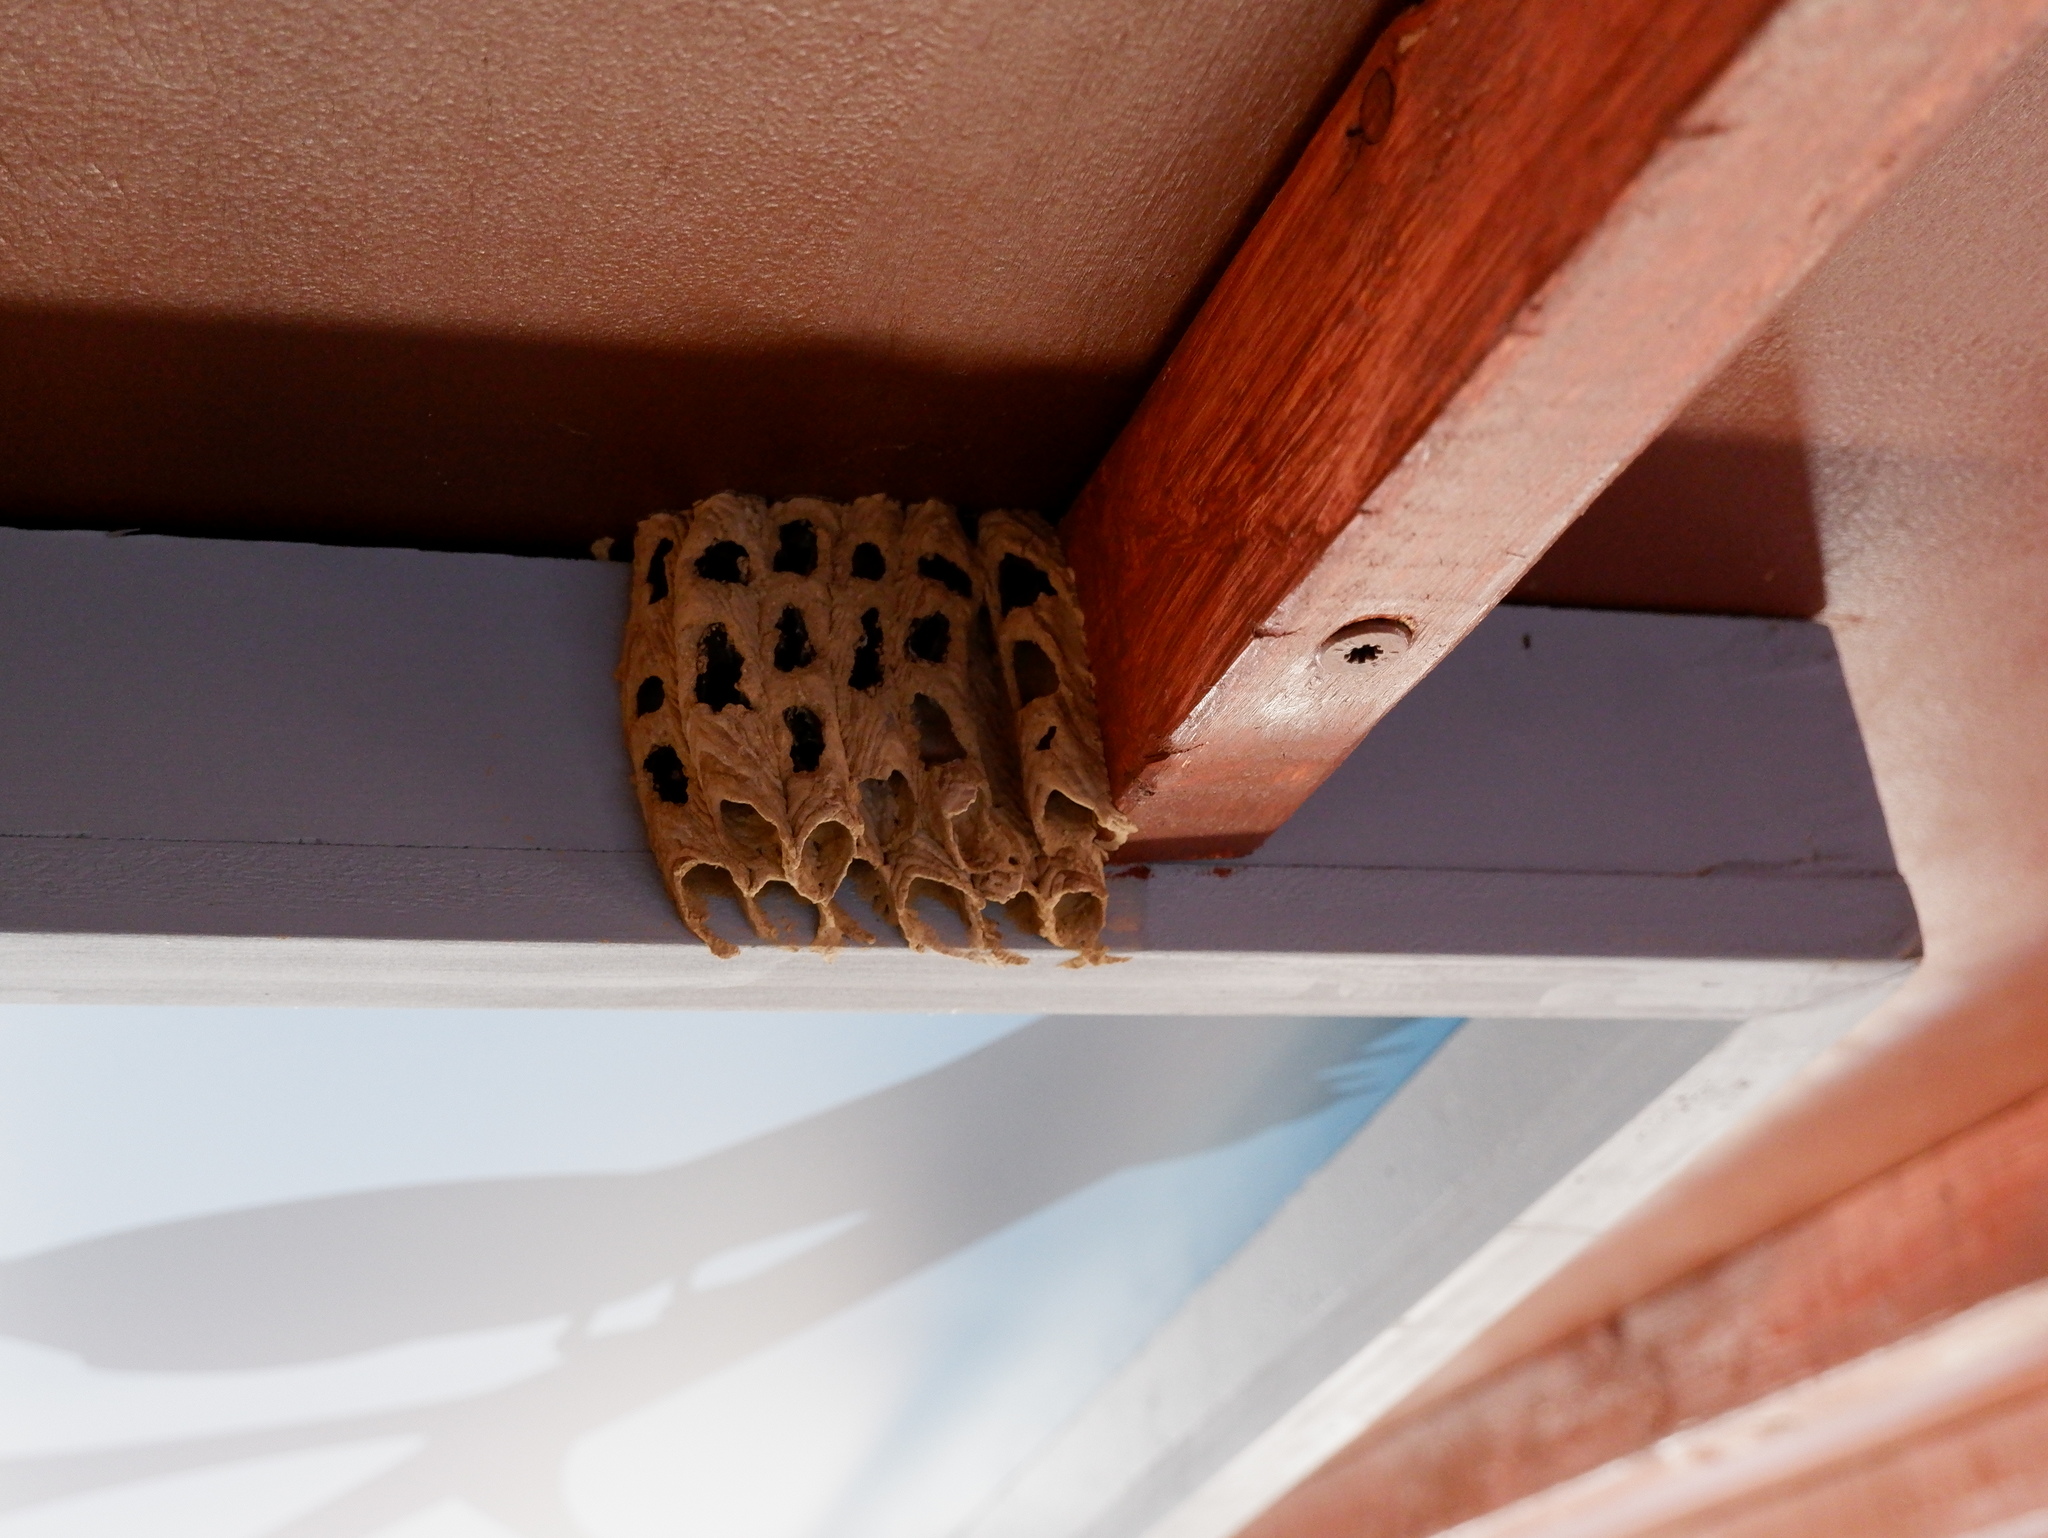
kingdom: Animalia
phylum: Arthropoda
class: Insecta
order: Hymenoptera
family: Crabronidae
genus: Trypoxylon
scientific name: Trypoxylon politum
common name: Organ-pipe mud-dauber wasp
